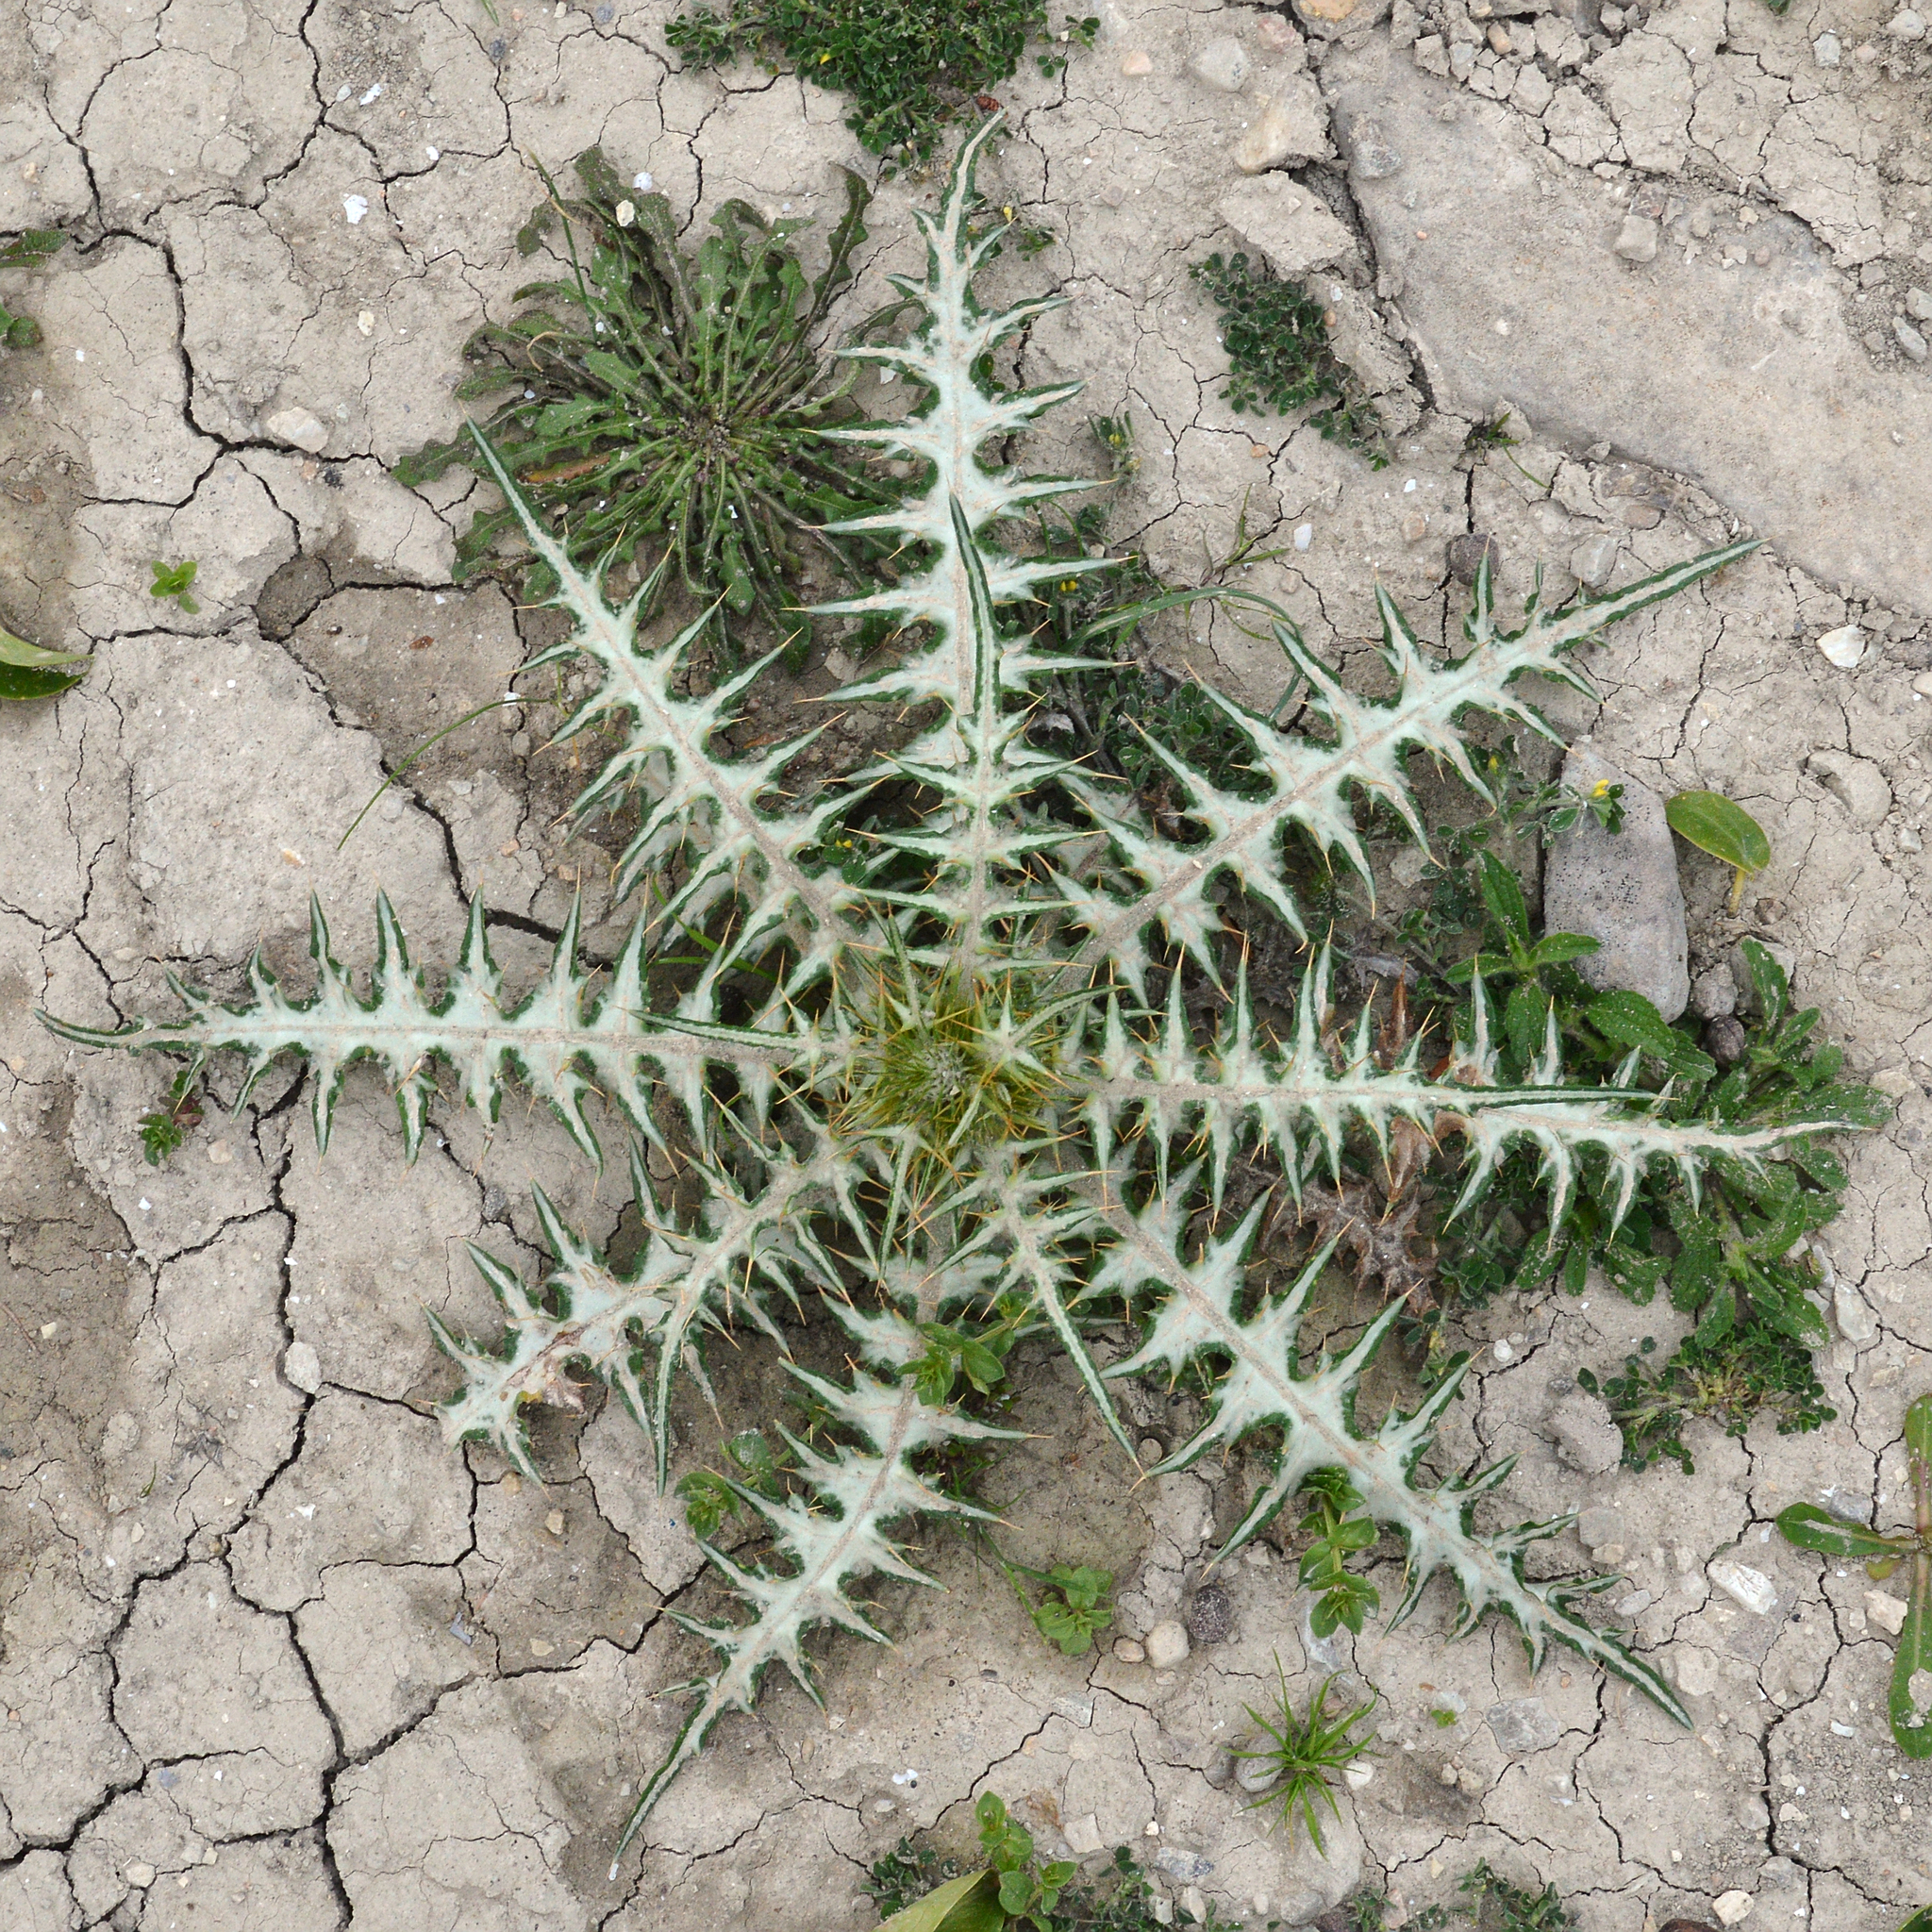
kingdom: Plantae
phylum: Tracheophyta
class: Magnoliopsida
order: Asterales
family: Asteraceae
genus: Galactites
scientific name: Galactites tomentosa
